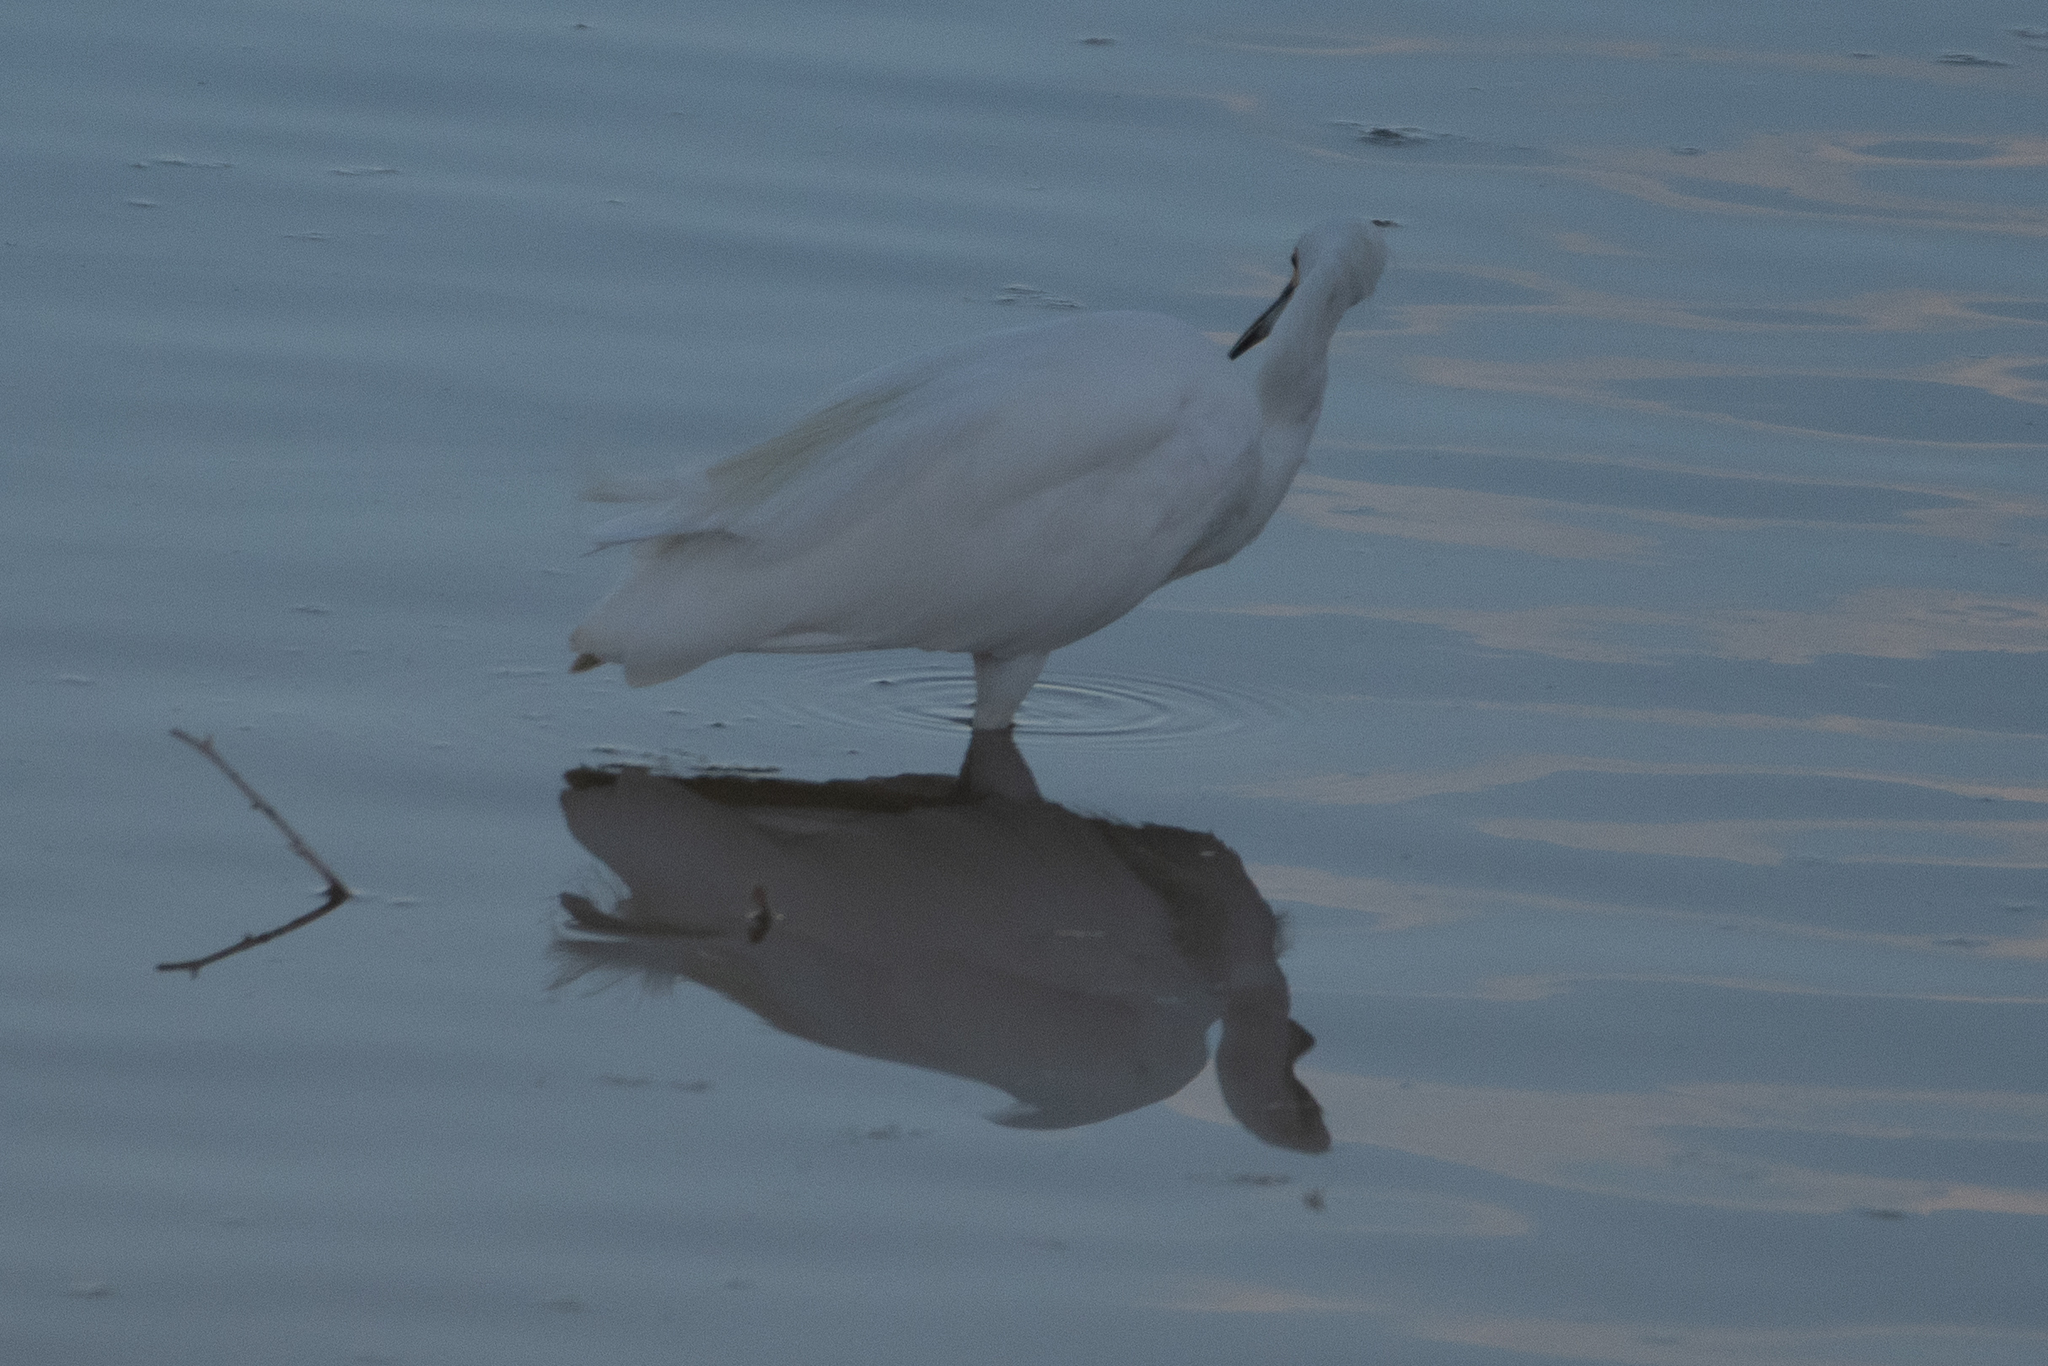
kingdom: Animalia
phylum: Chordata
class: Aves
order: Pelecaniformes
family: Ardeidae
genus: Egretta
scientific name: Egretta thula
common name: Snowy egret
